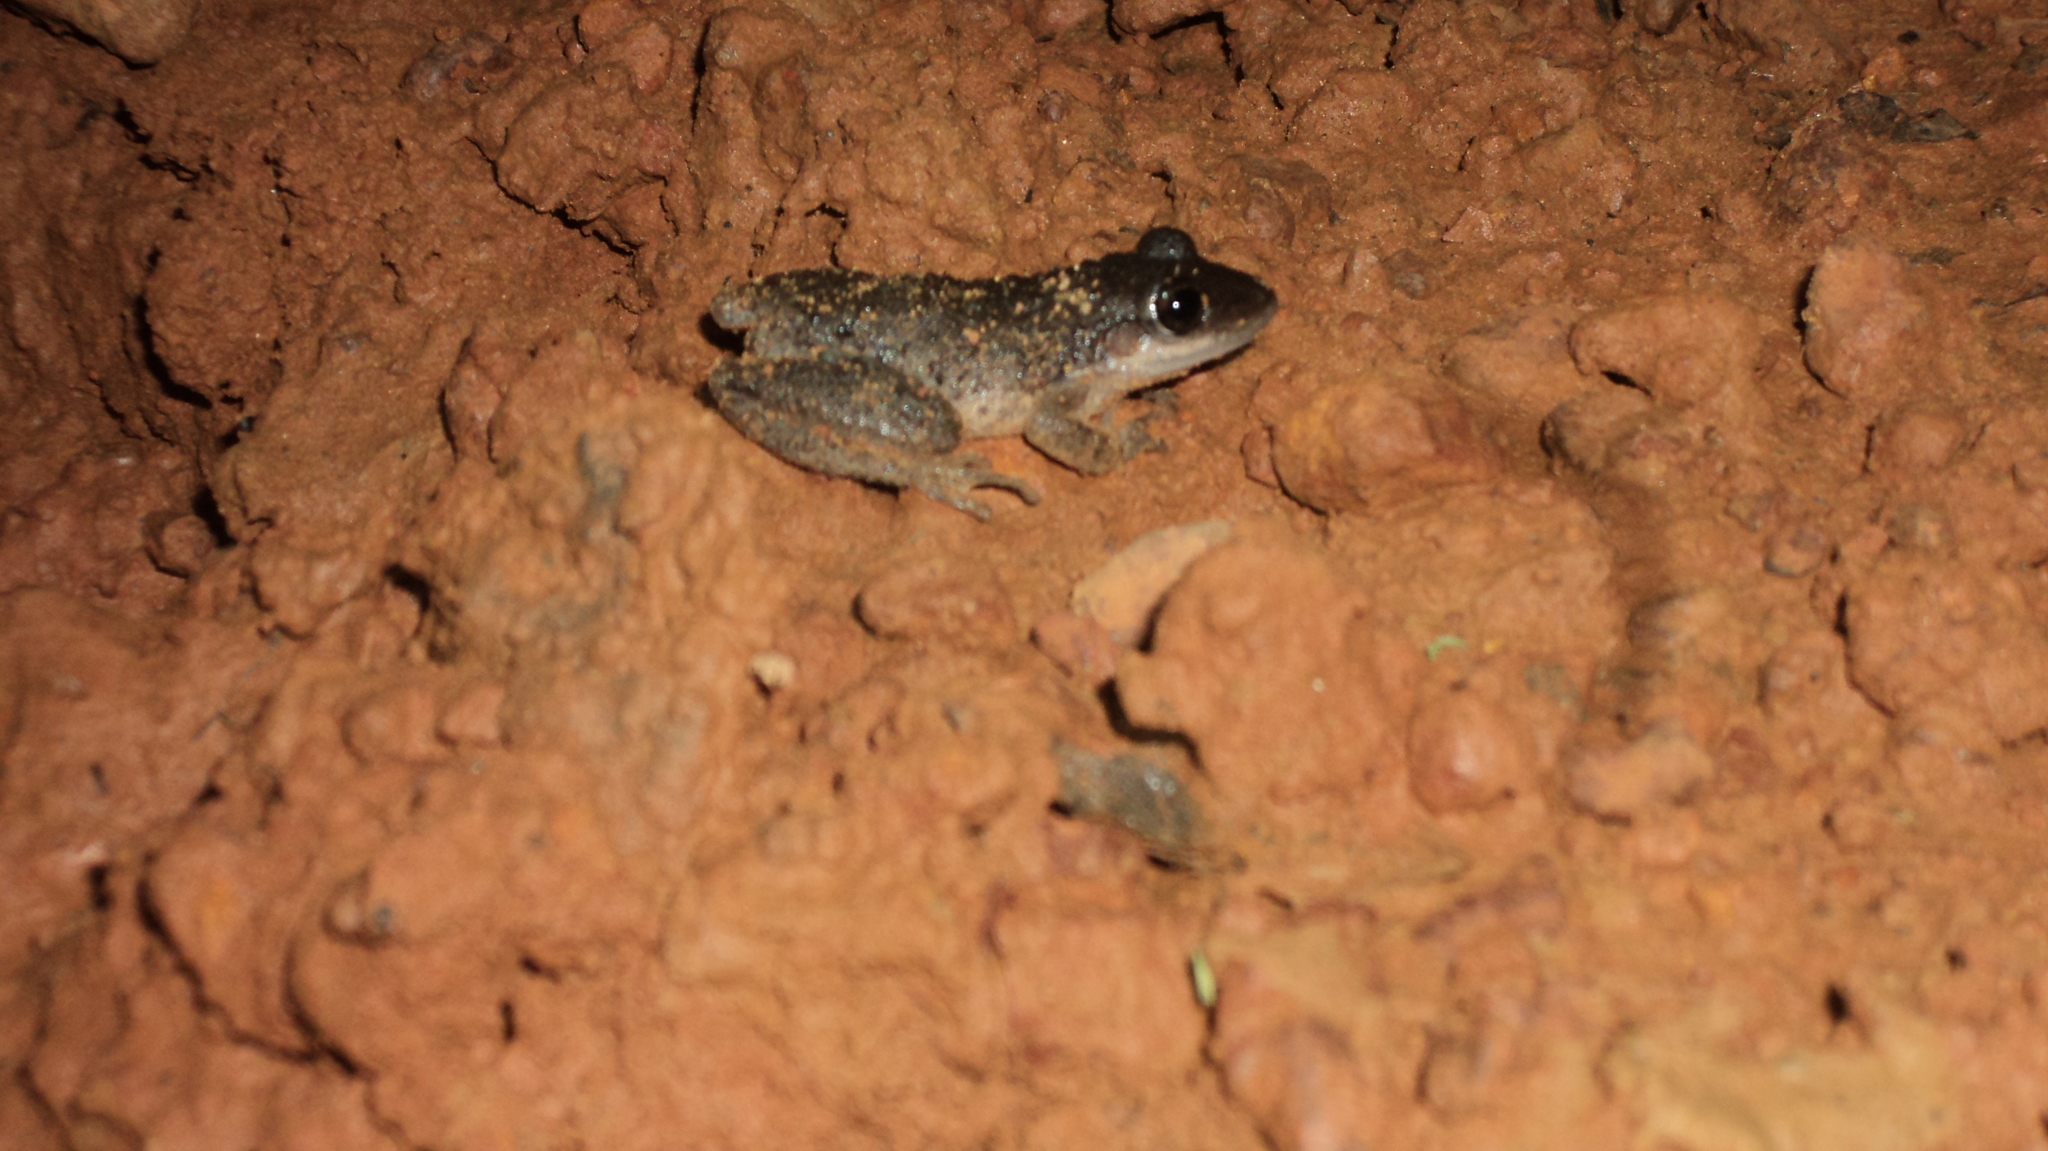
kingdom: Animalia
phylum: Chordata
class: Amphibia
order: Anura
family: Leptodactylidae
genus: Adenomera
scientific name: Adenomera chicomendesi
